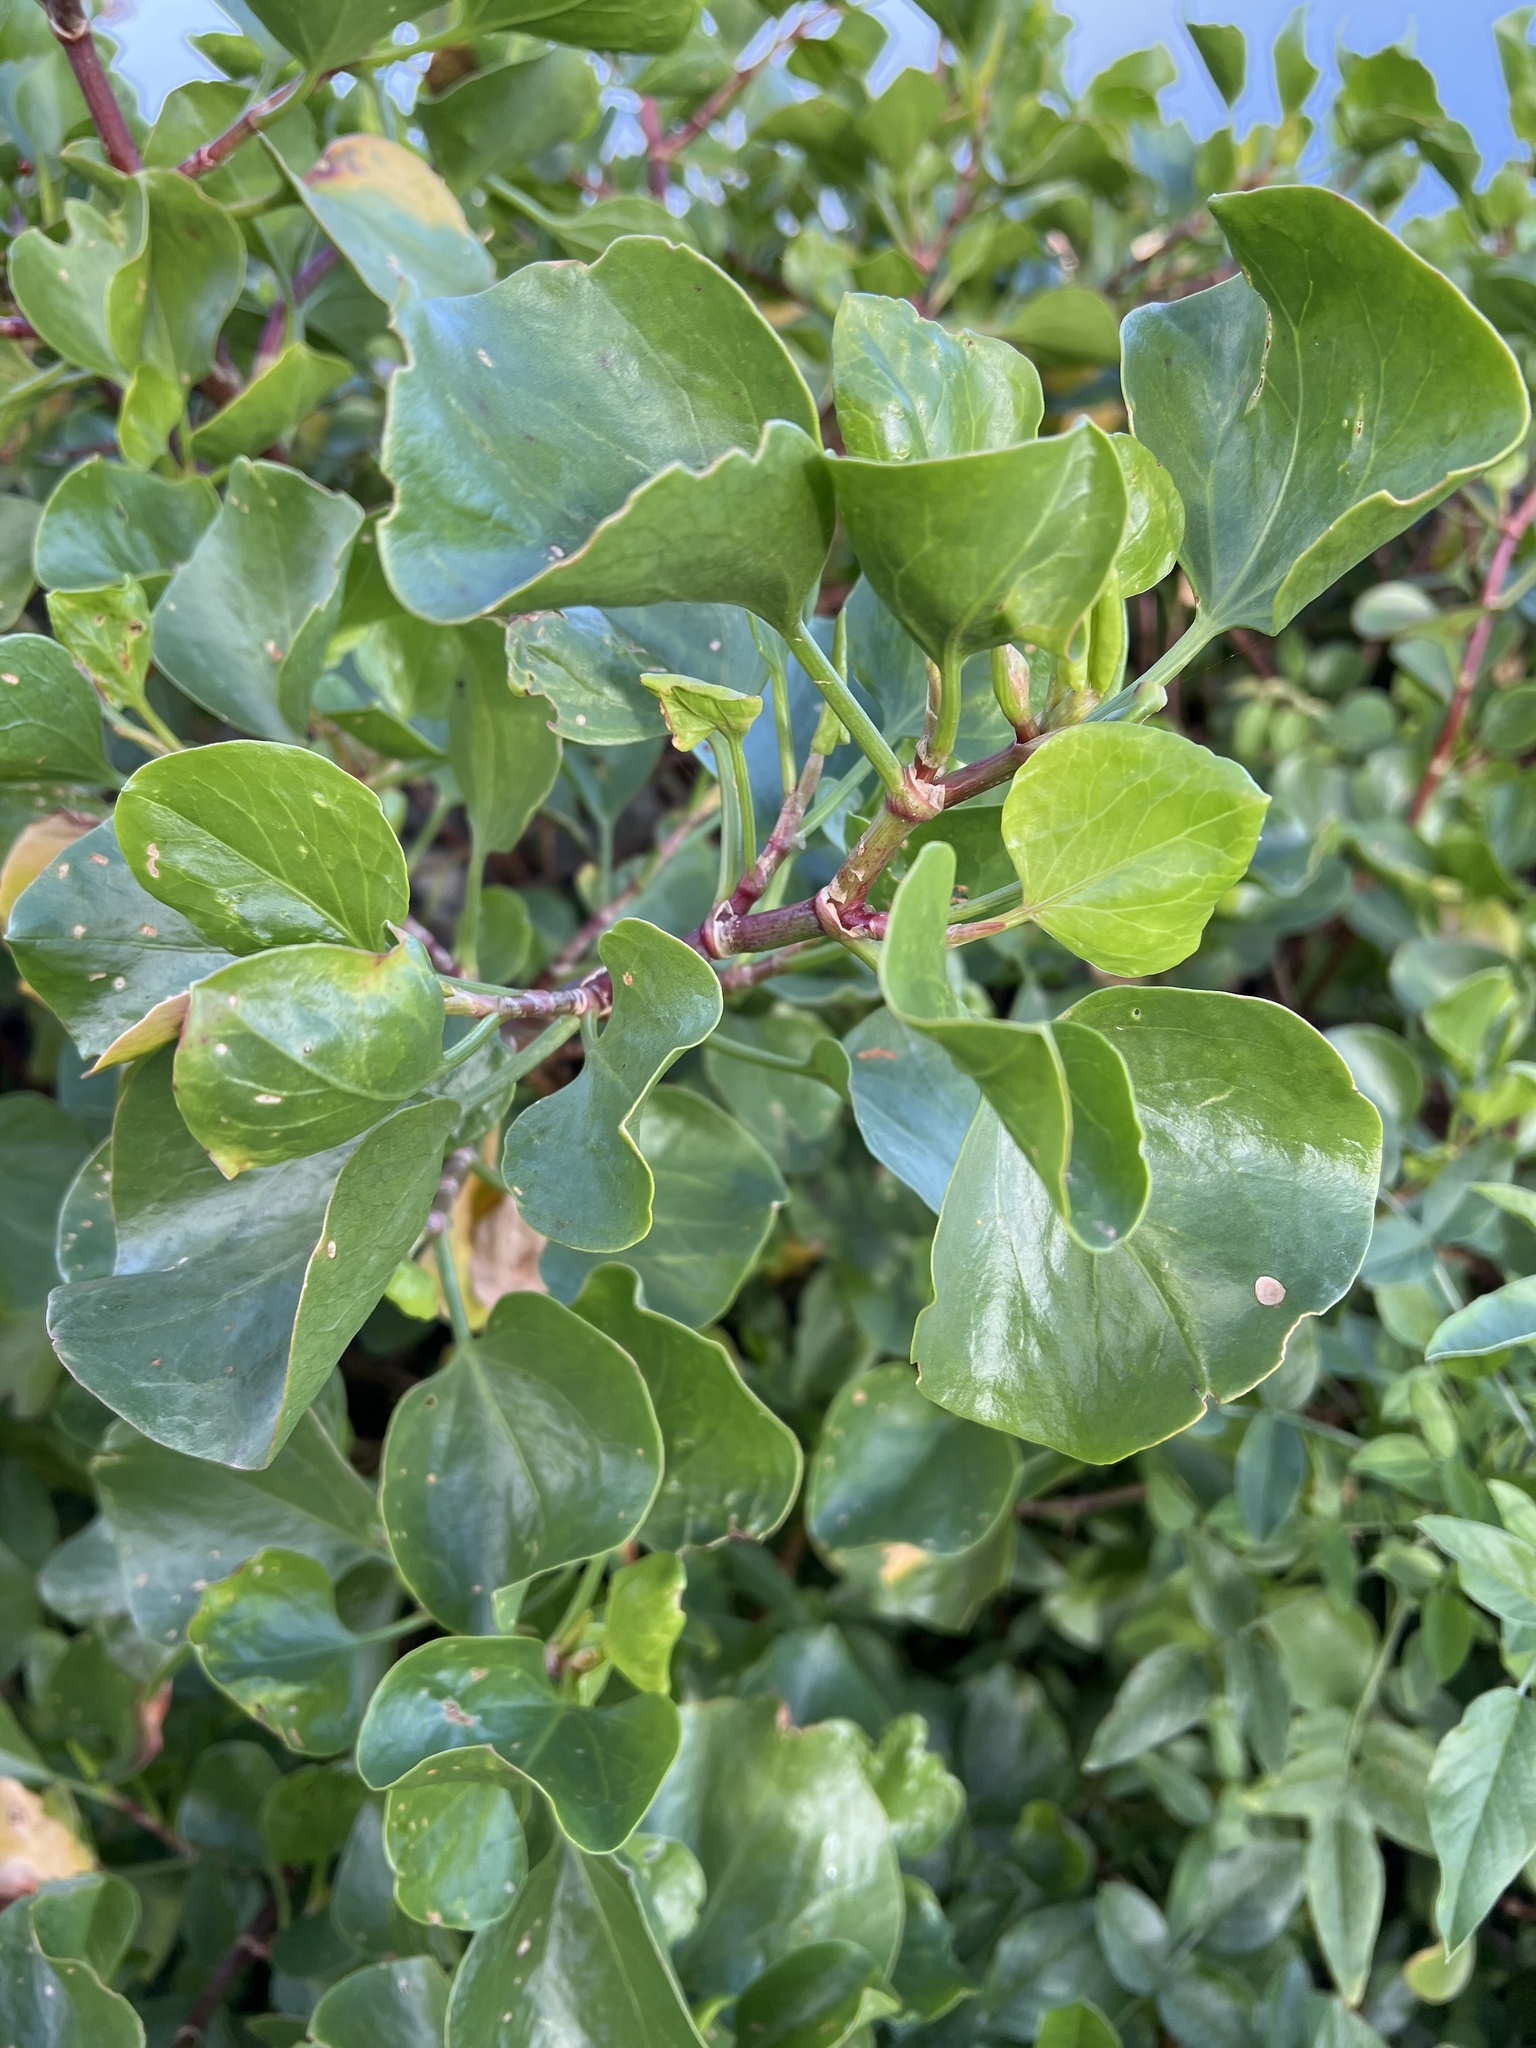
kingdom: Plantae
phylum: Tracheophyta
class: Magnoliopsida
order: Caryophyllales
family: Polygonaceae
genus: Rumex
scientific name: Rumex lunaria
